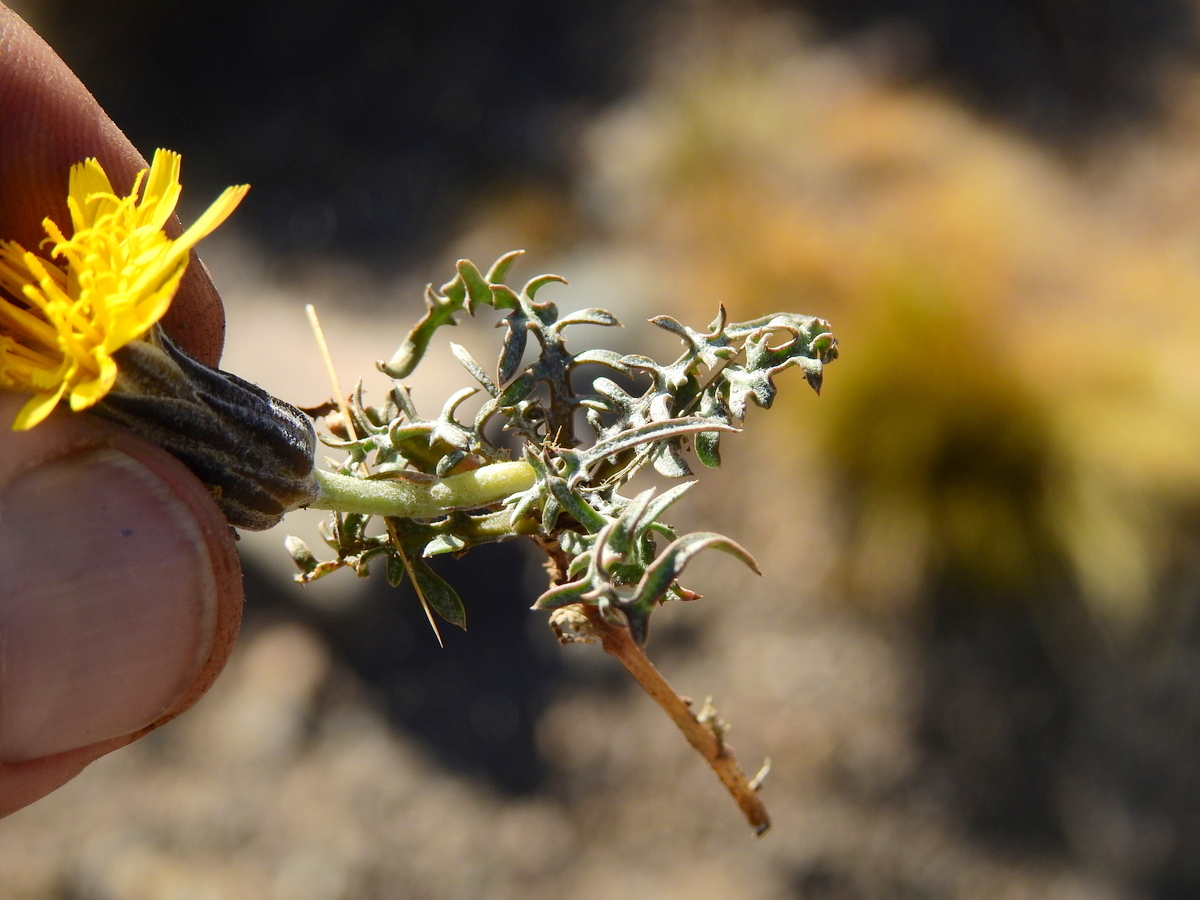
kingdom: Plantae
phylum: Tracheophyta
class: Magnoliopsida
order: Asterales
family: Asteraceae
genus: Hypochaeris
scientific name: Hypochaeris laciniata
